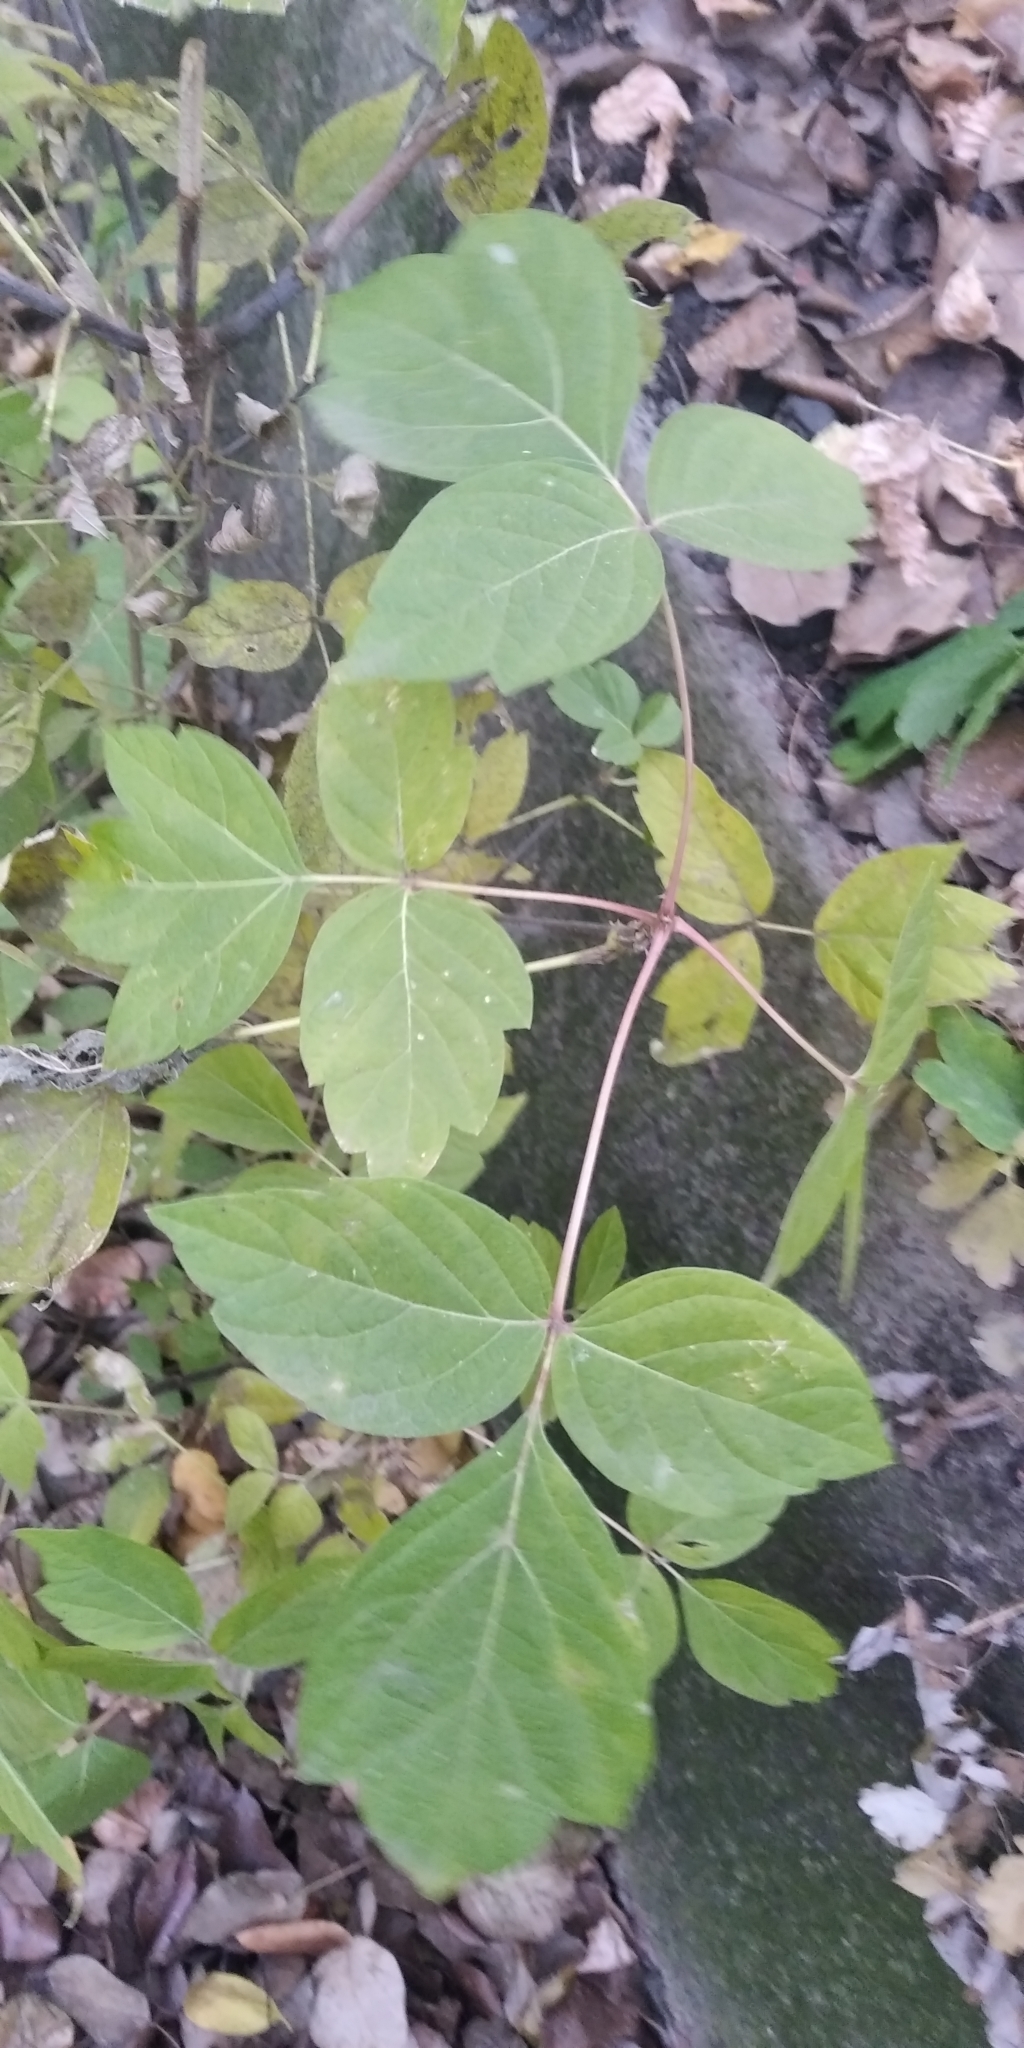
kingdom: Plantae
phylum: Tracheophyta
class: Magnoliopsida
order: Sapindales
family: Sapindaceae
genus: Acer
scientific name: Acer negundo
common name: Ashleaf maple
